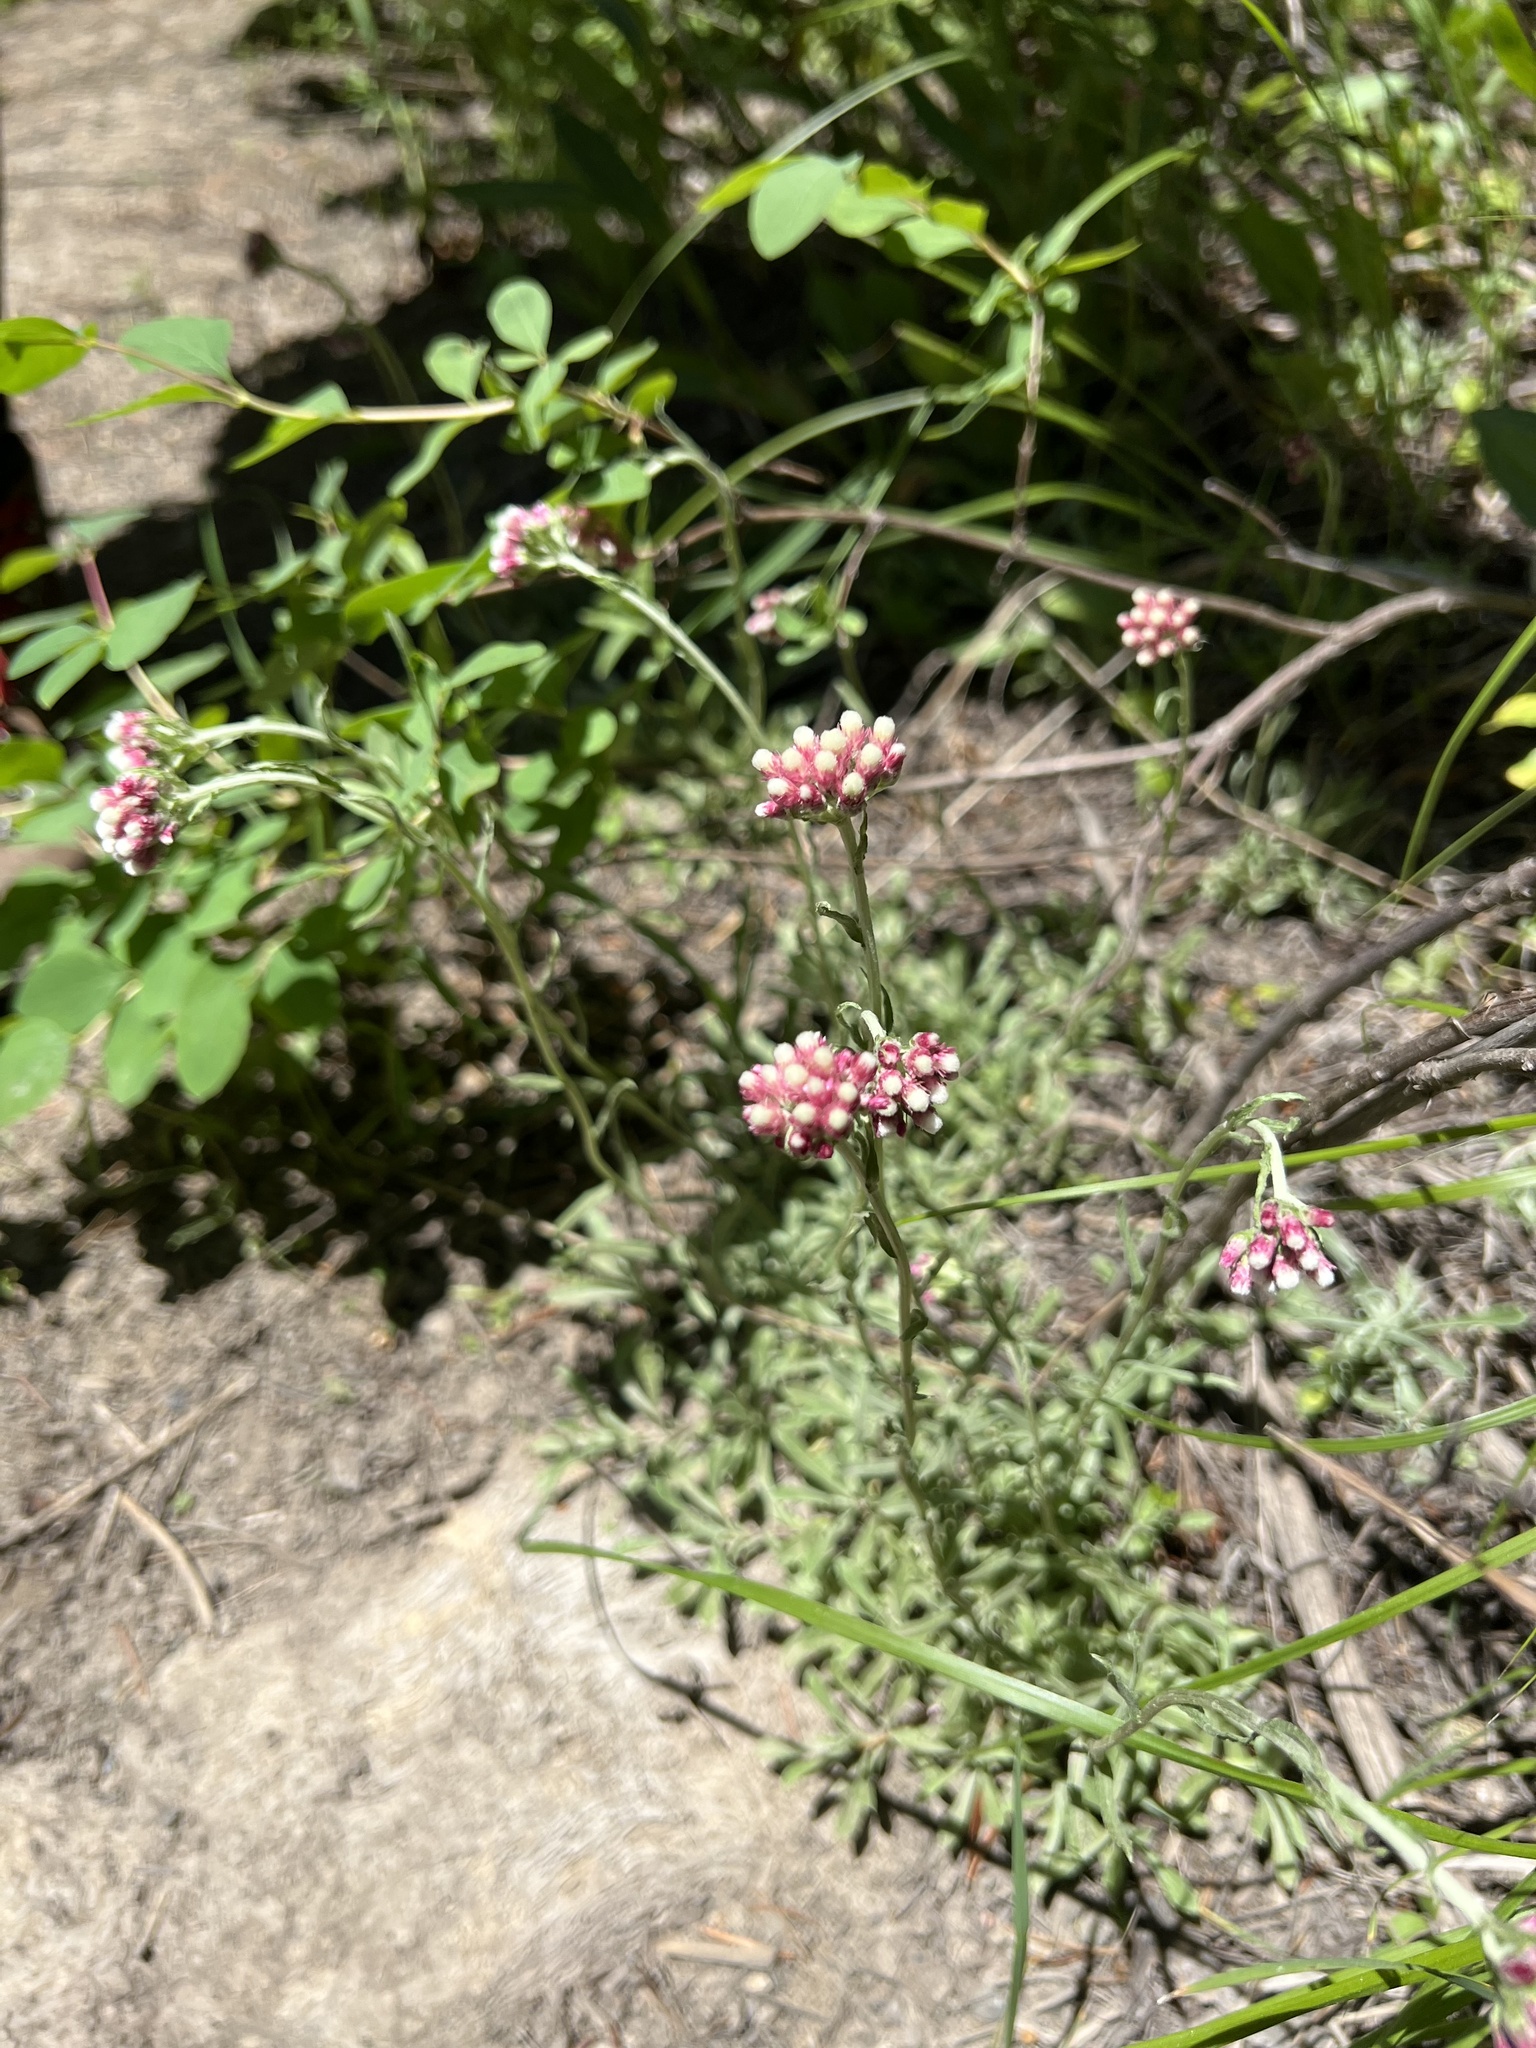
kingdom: Plantae
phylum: Tracheophyta
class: Magnoliopsida
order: Asterales
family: Asteraceae
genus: Antennaria
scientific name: Antennaria rosea
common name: Rosy pussytoes
